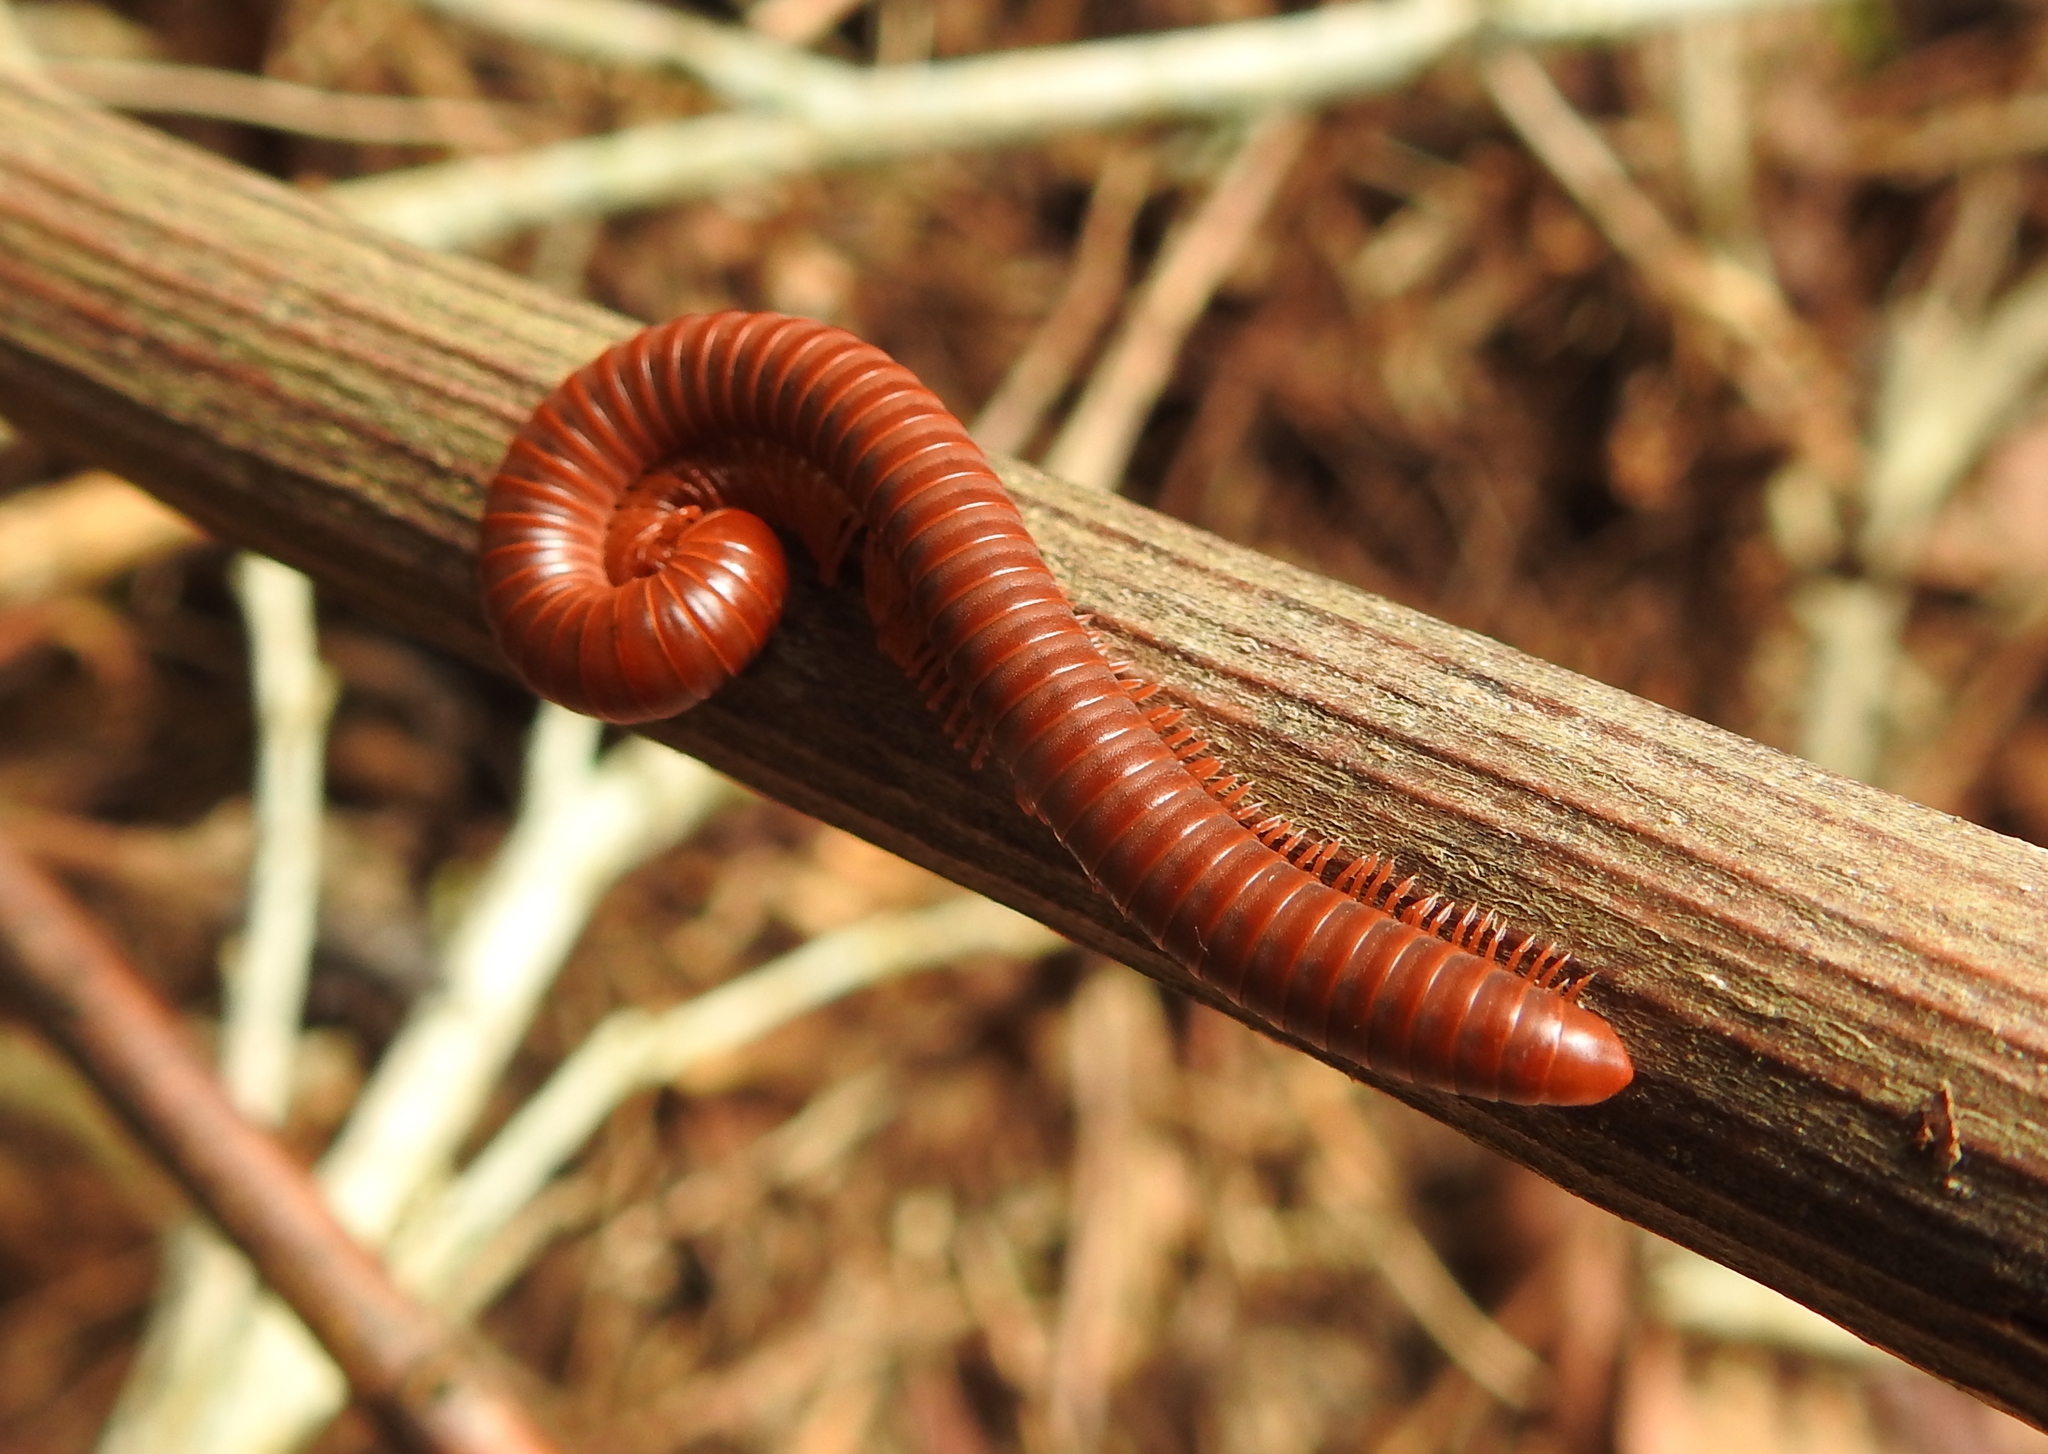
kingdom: Animalia
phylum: Arthropoda
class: Diplopoda
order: Spirobolida
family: Pachybolidae
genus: Trigoniulus
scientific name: Trigoniulus corallinus
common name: Millipede
